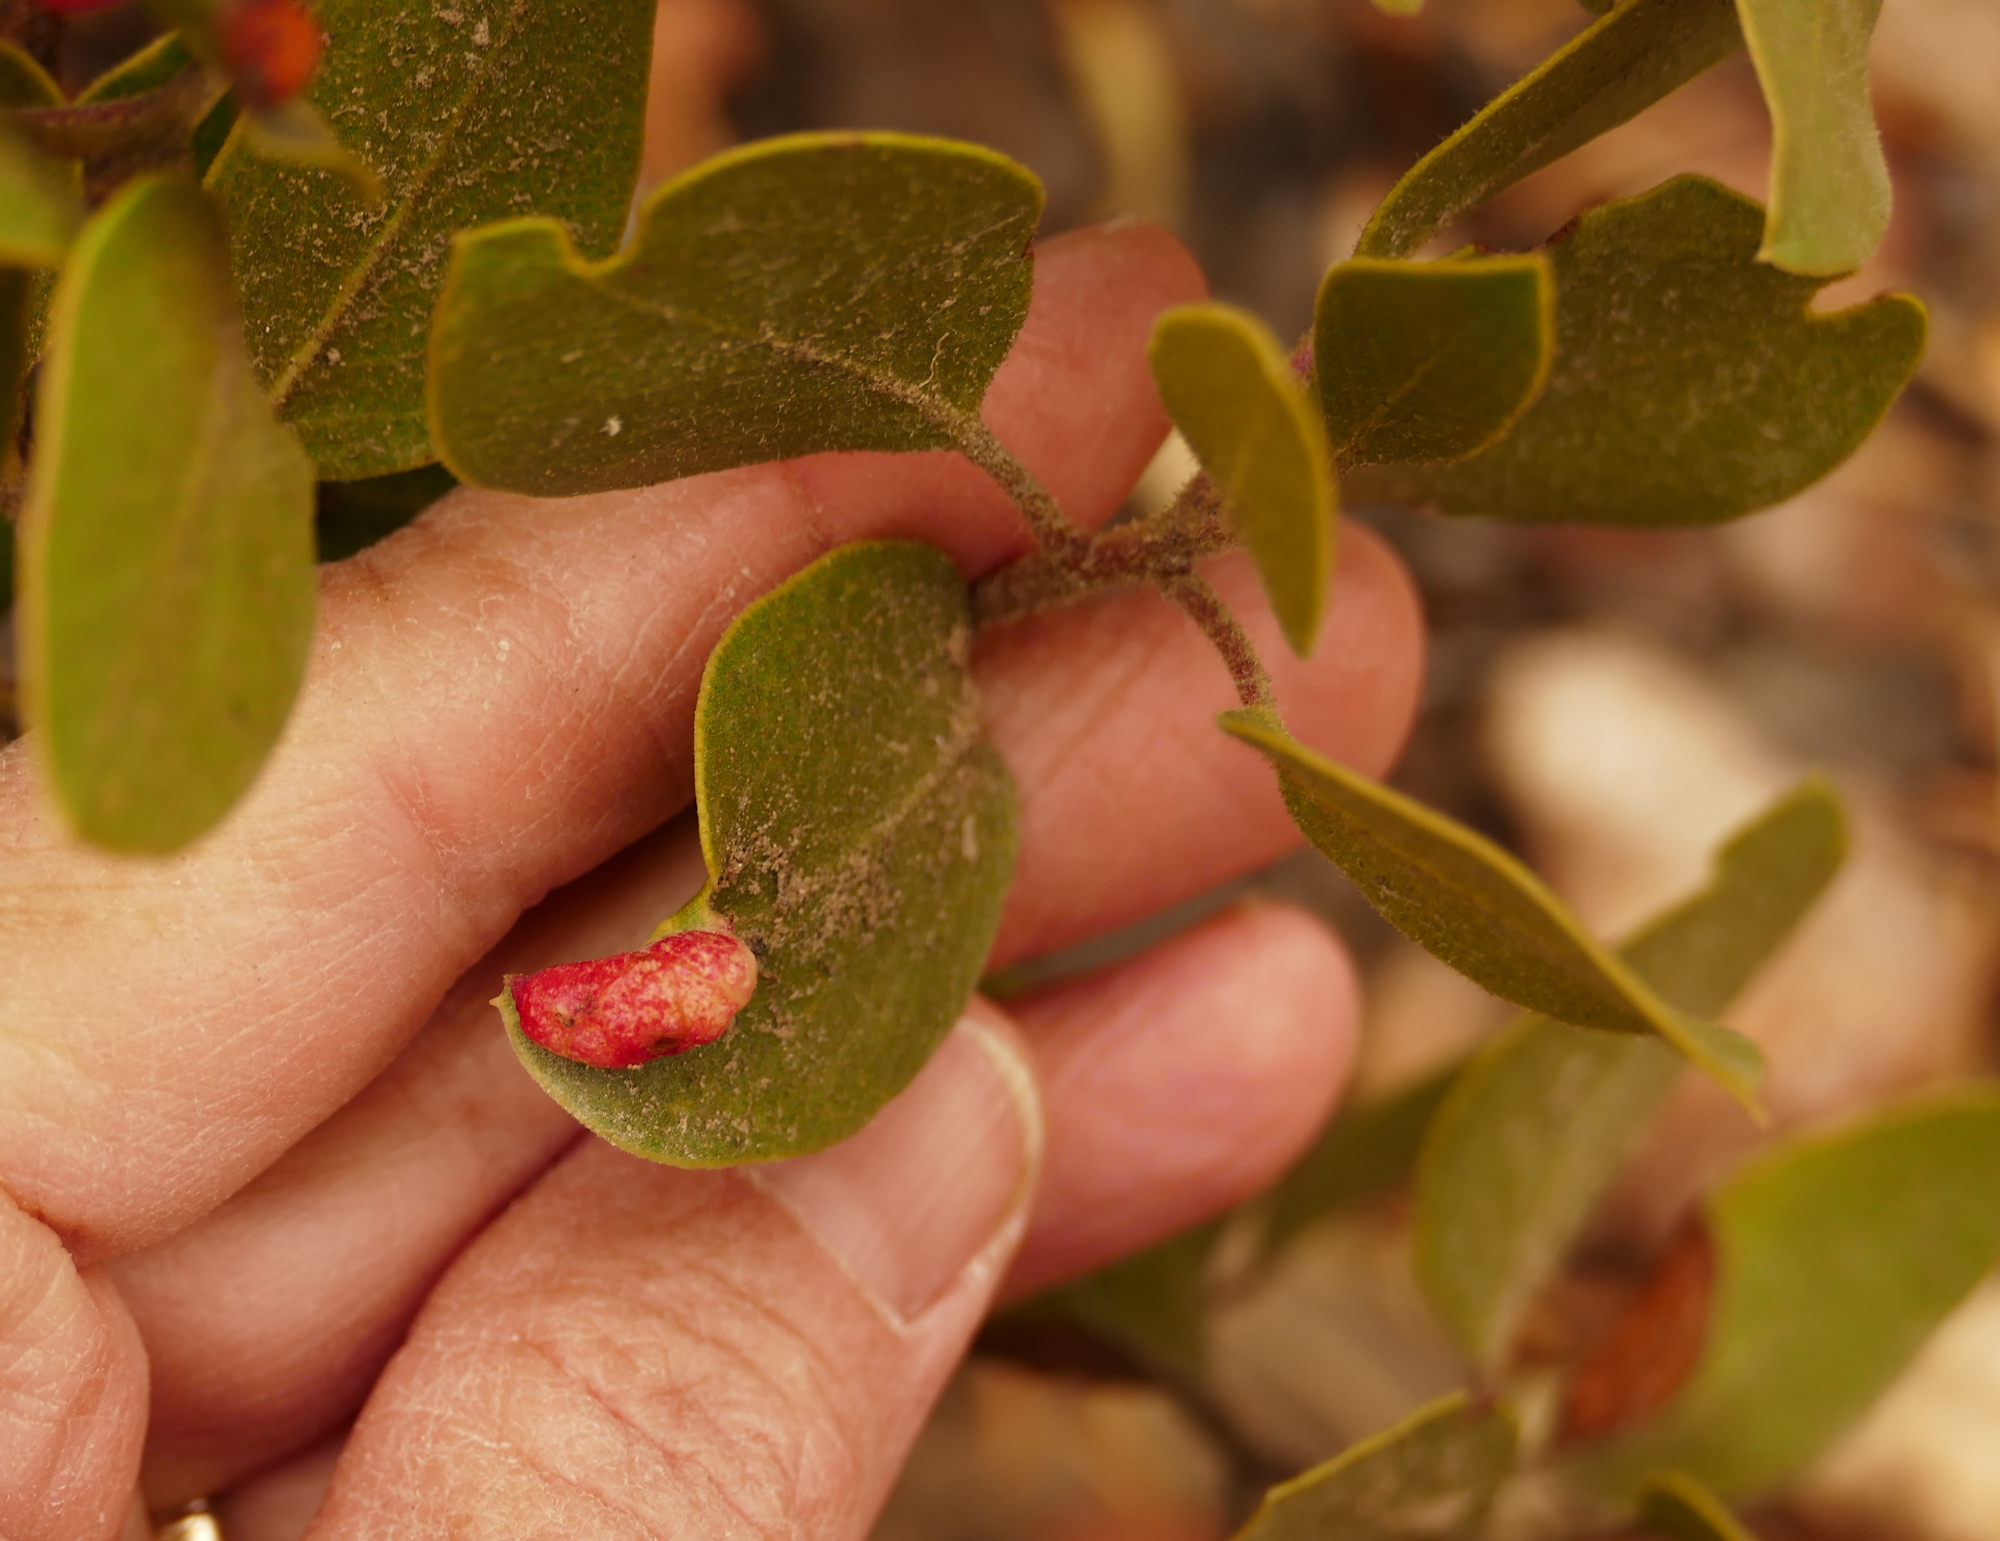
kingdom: Animalia
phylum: Arthropoda
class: Insecta
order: Hemiptera
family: Aphididae
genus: Tamalia
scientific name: Tamalia coweni
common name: Manzanita leafgall aphid
